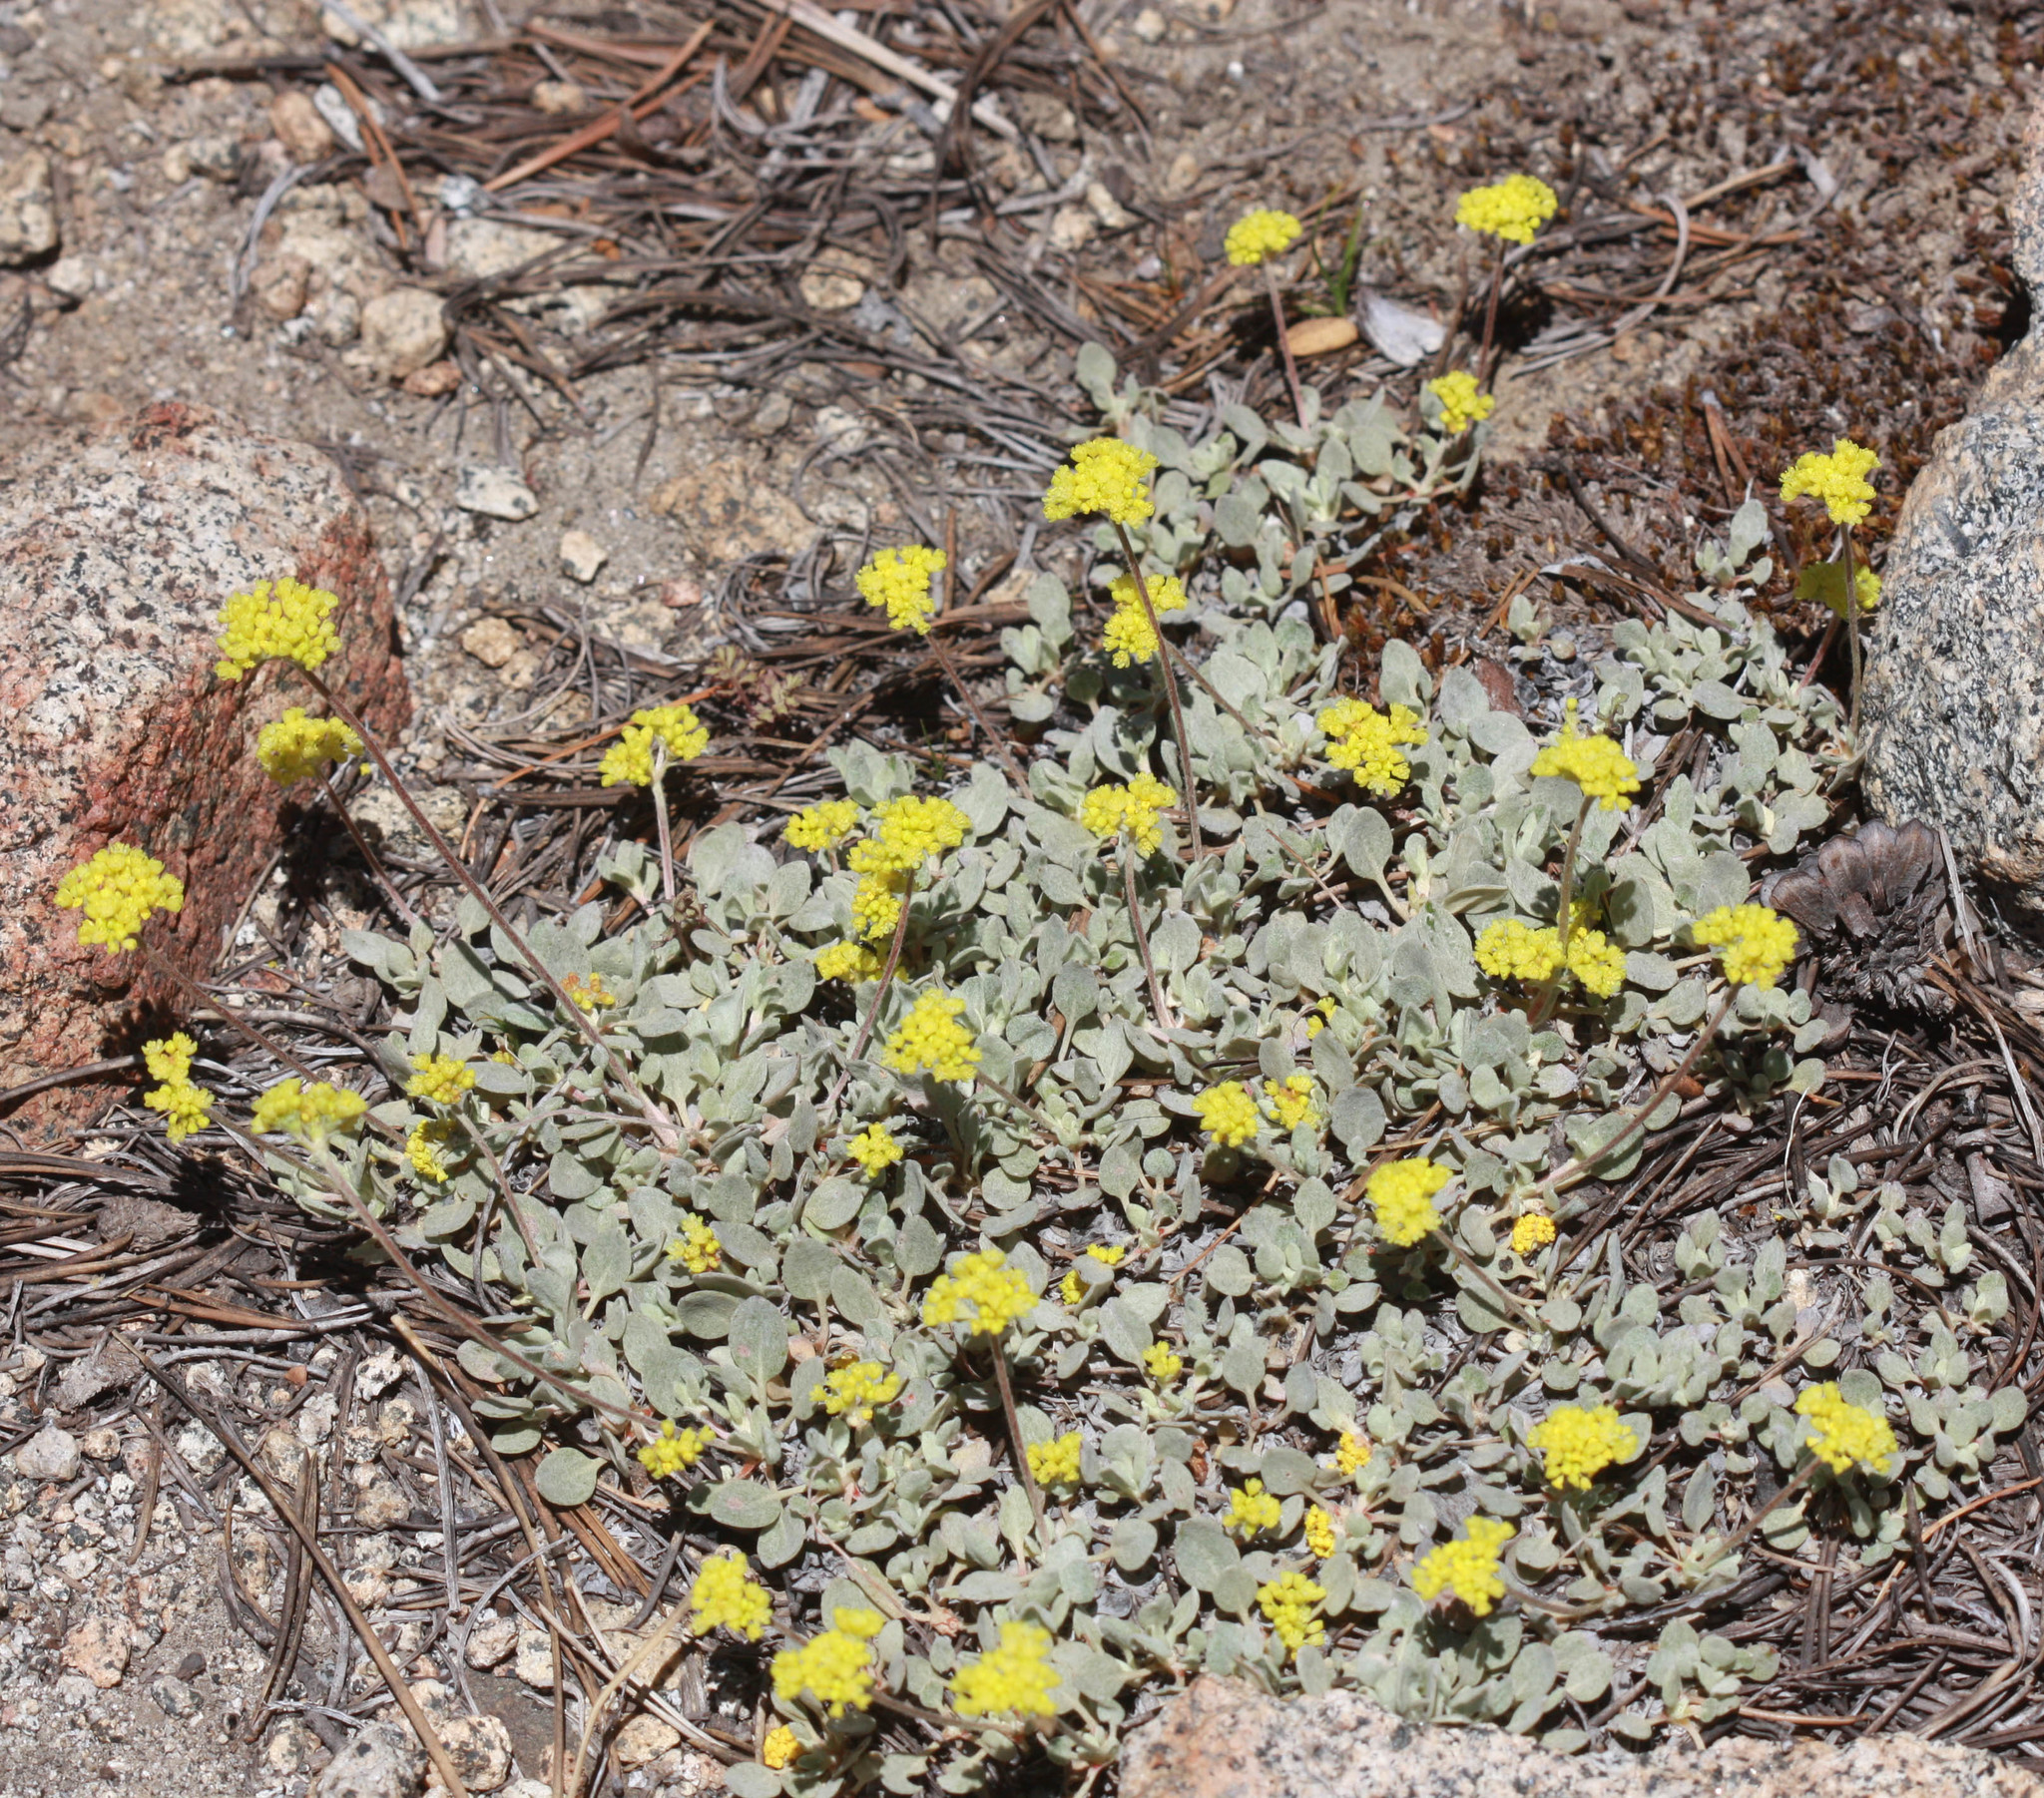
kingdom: Plantae
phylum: Tracheophyta
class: Magnoliopsida
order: Caryophyllales
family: Polygonaceae
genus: Eriogonum
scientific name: Eriogonum incanum
